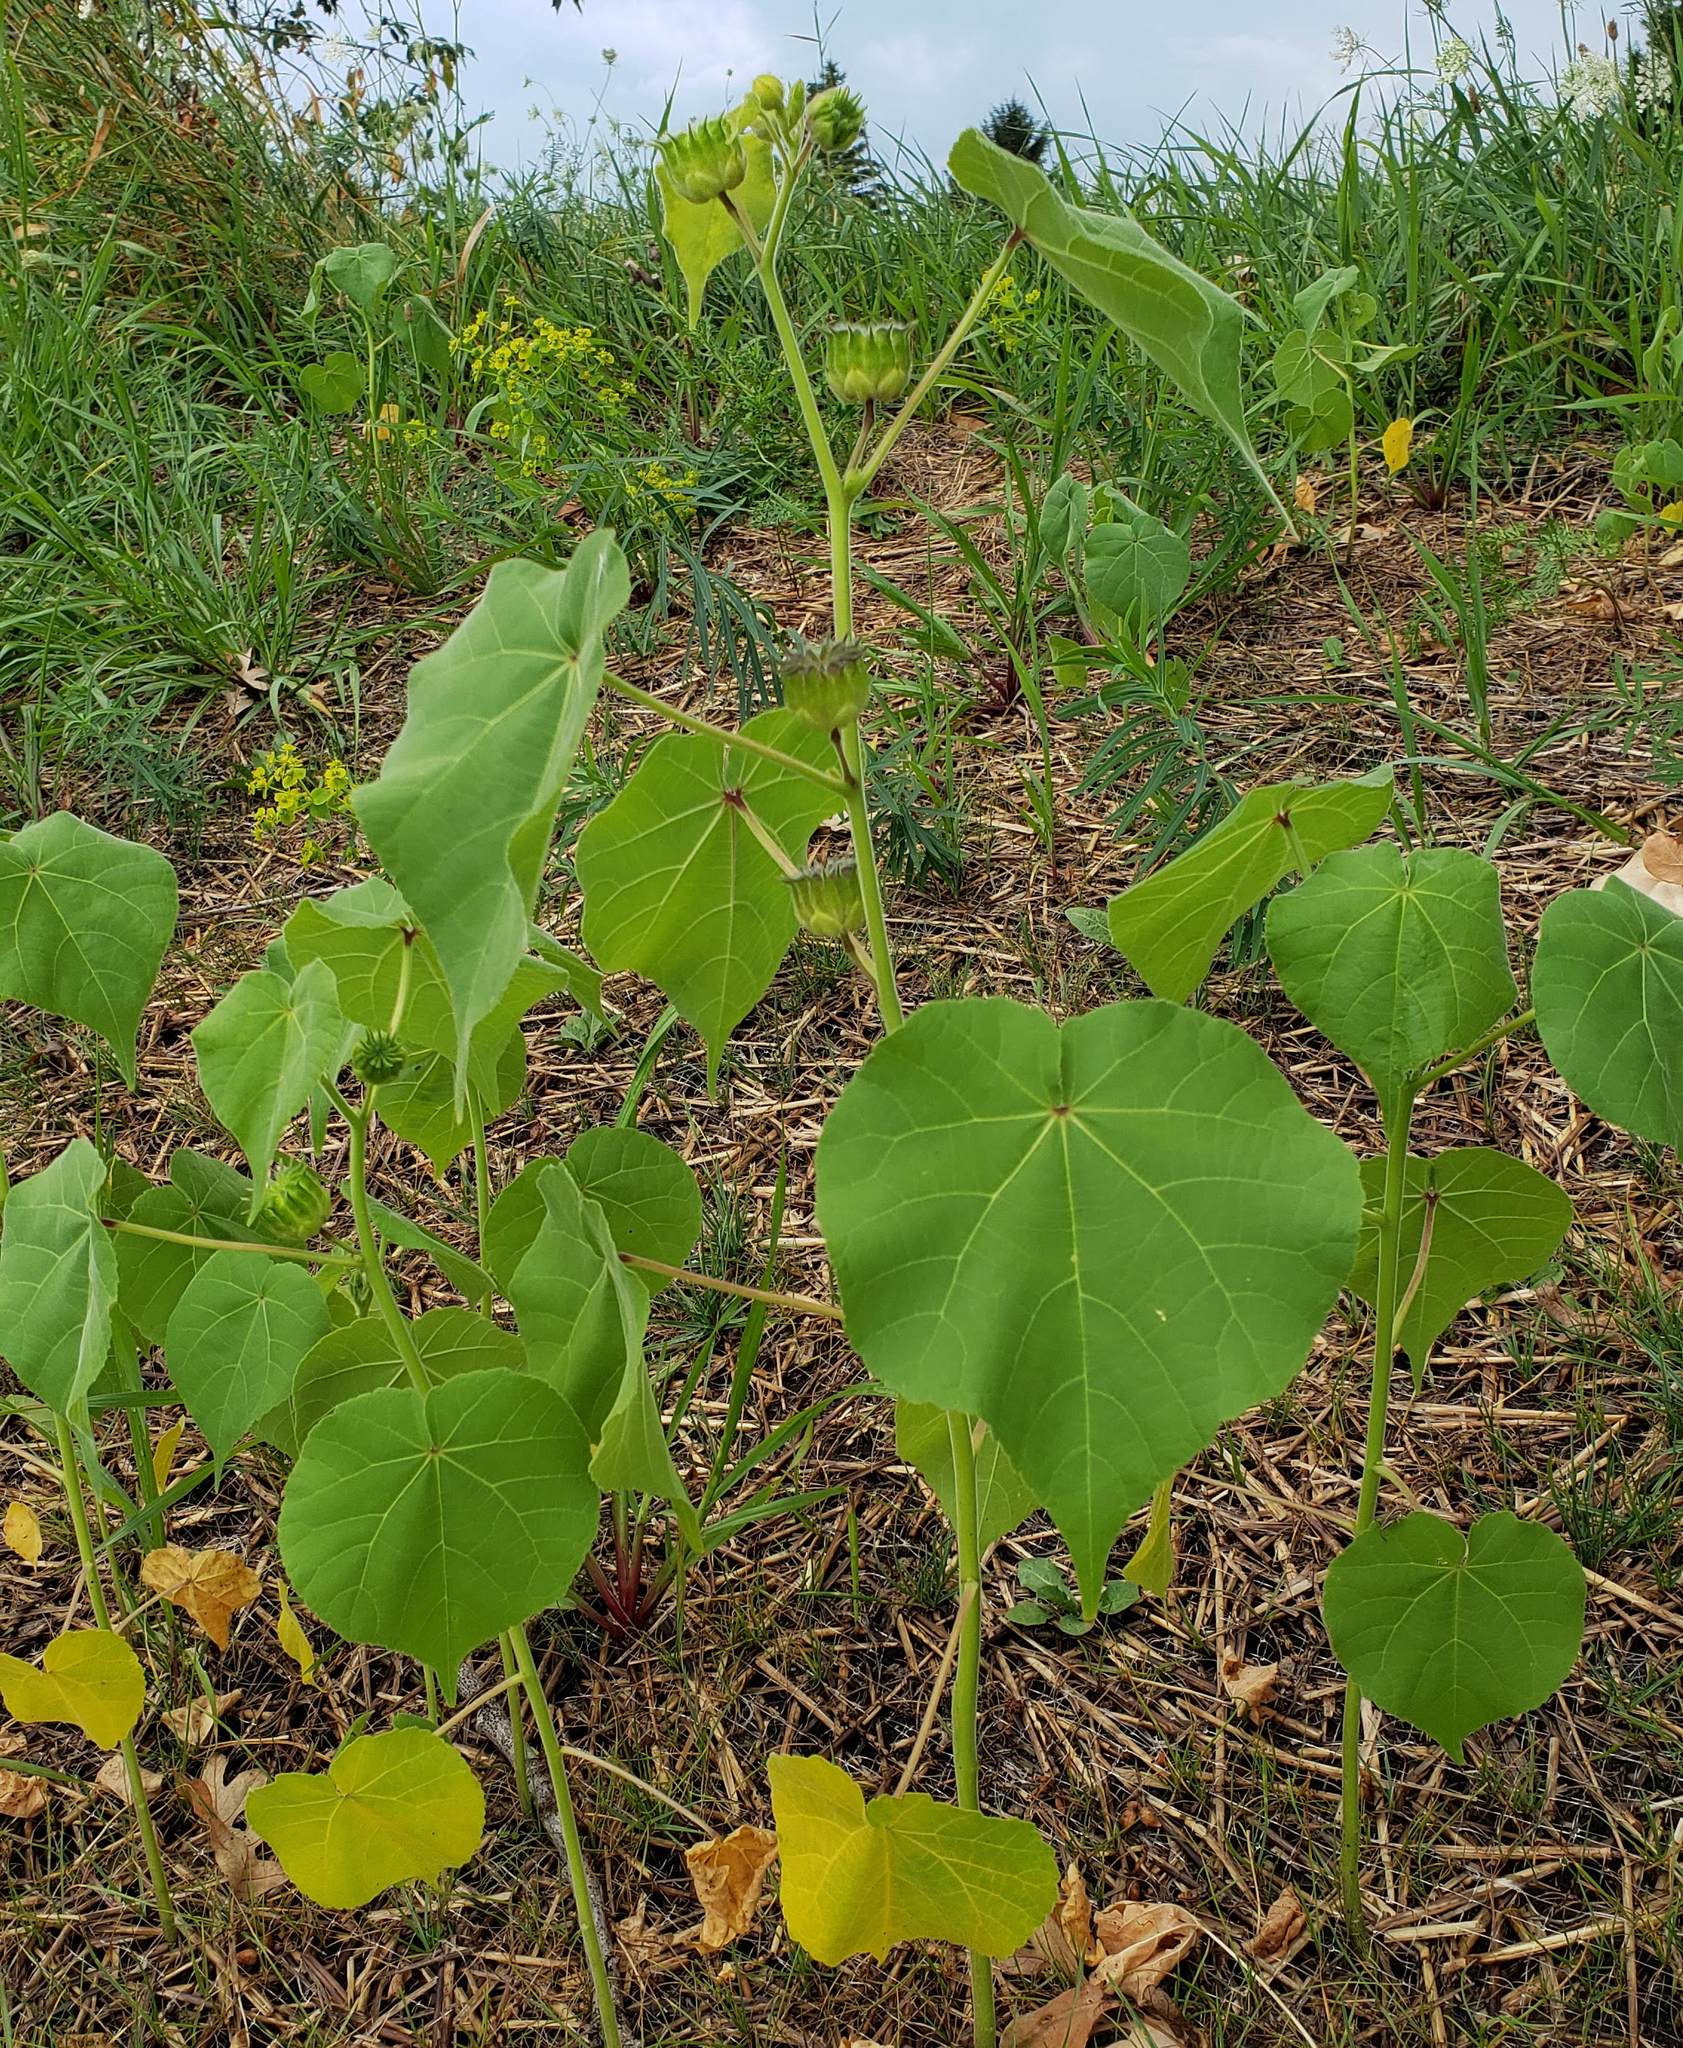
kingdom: Plantae
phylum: Tracheophyta
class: Magnoliopsida
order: Malvales
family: Malvaceae
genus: Abutilon
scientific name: Abutilon theophrasti
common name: Velvetleaf
